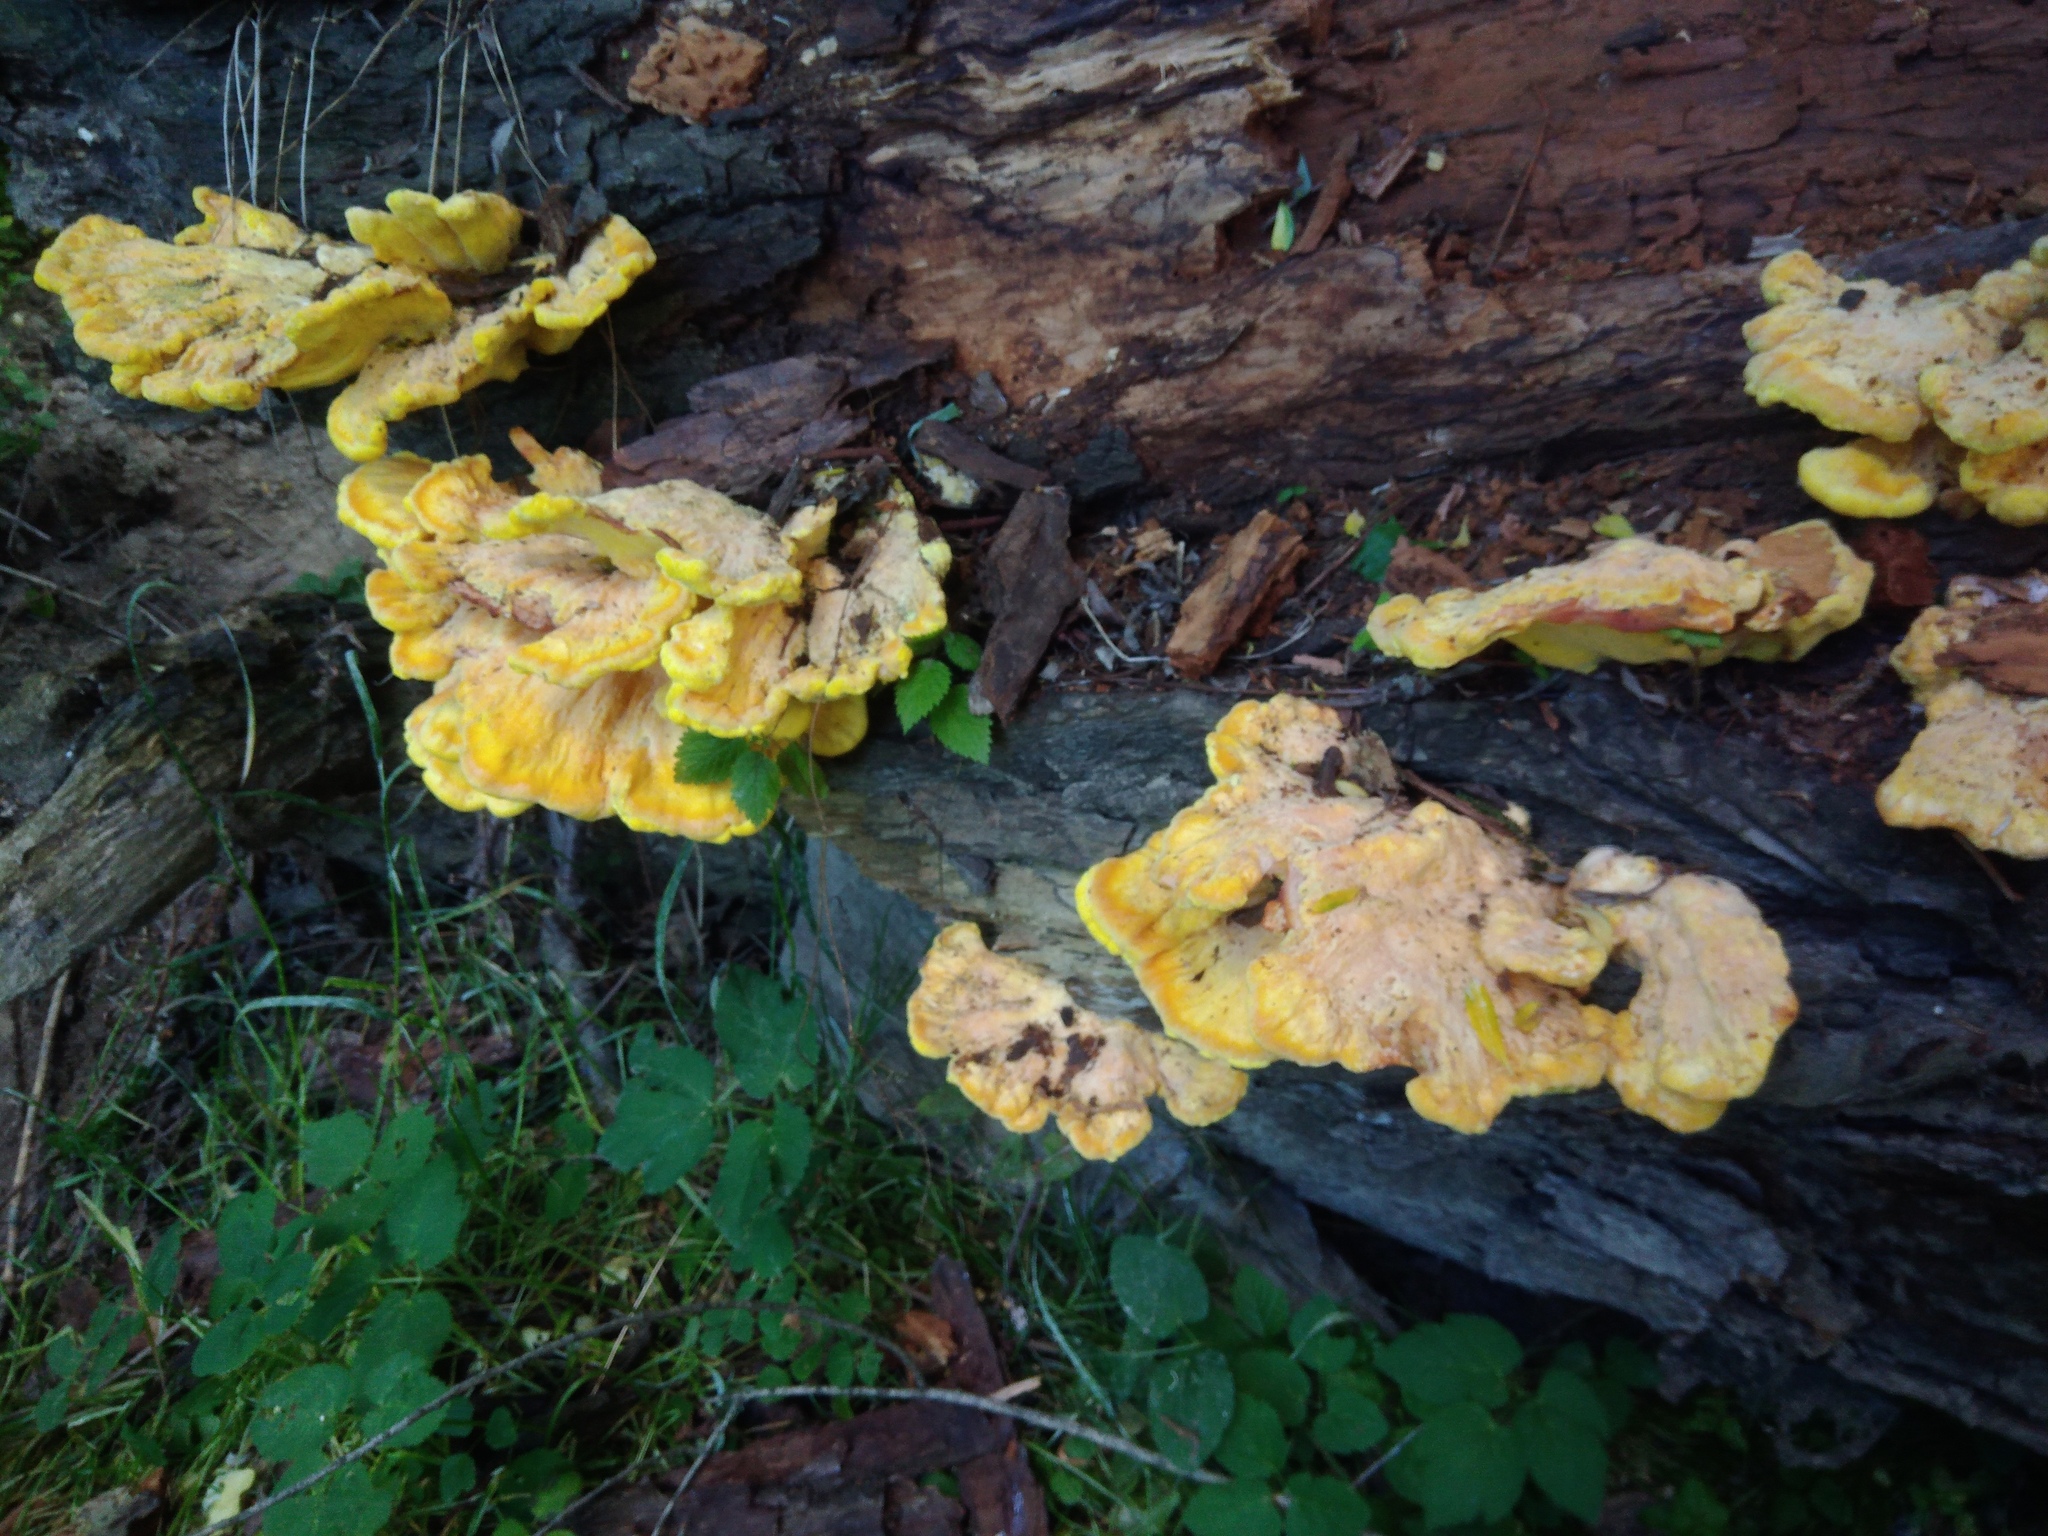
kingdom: Fungi
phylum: Basidiomycota
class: Agaricomycetes
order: Polyporales
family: Laetiporaceae
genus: Laetiporus
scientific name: Laetiporus sulphureus
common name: Chicken of the woods
